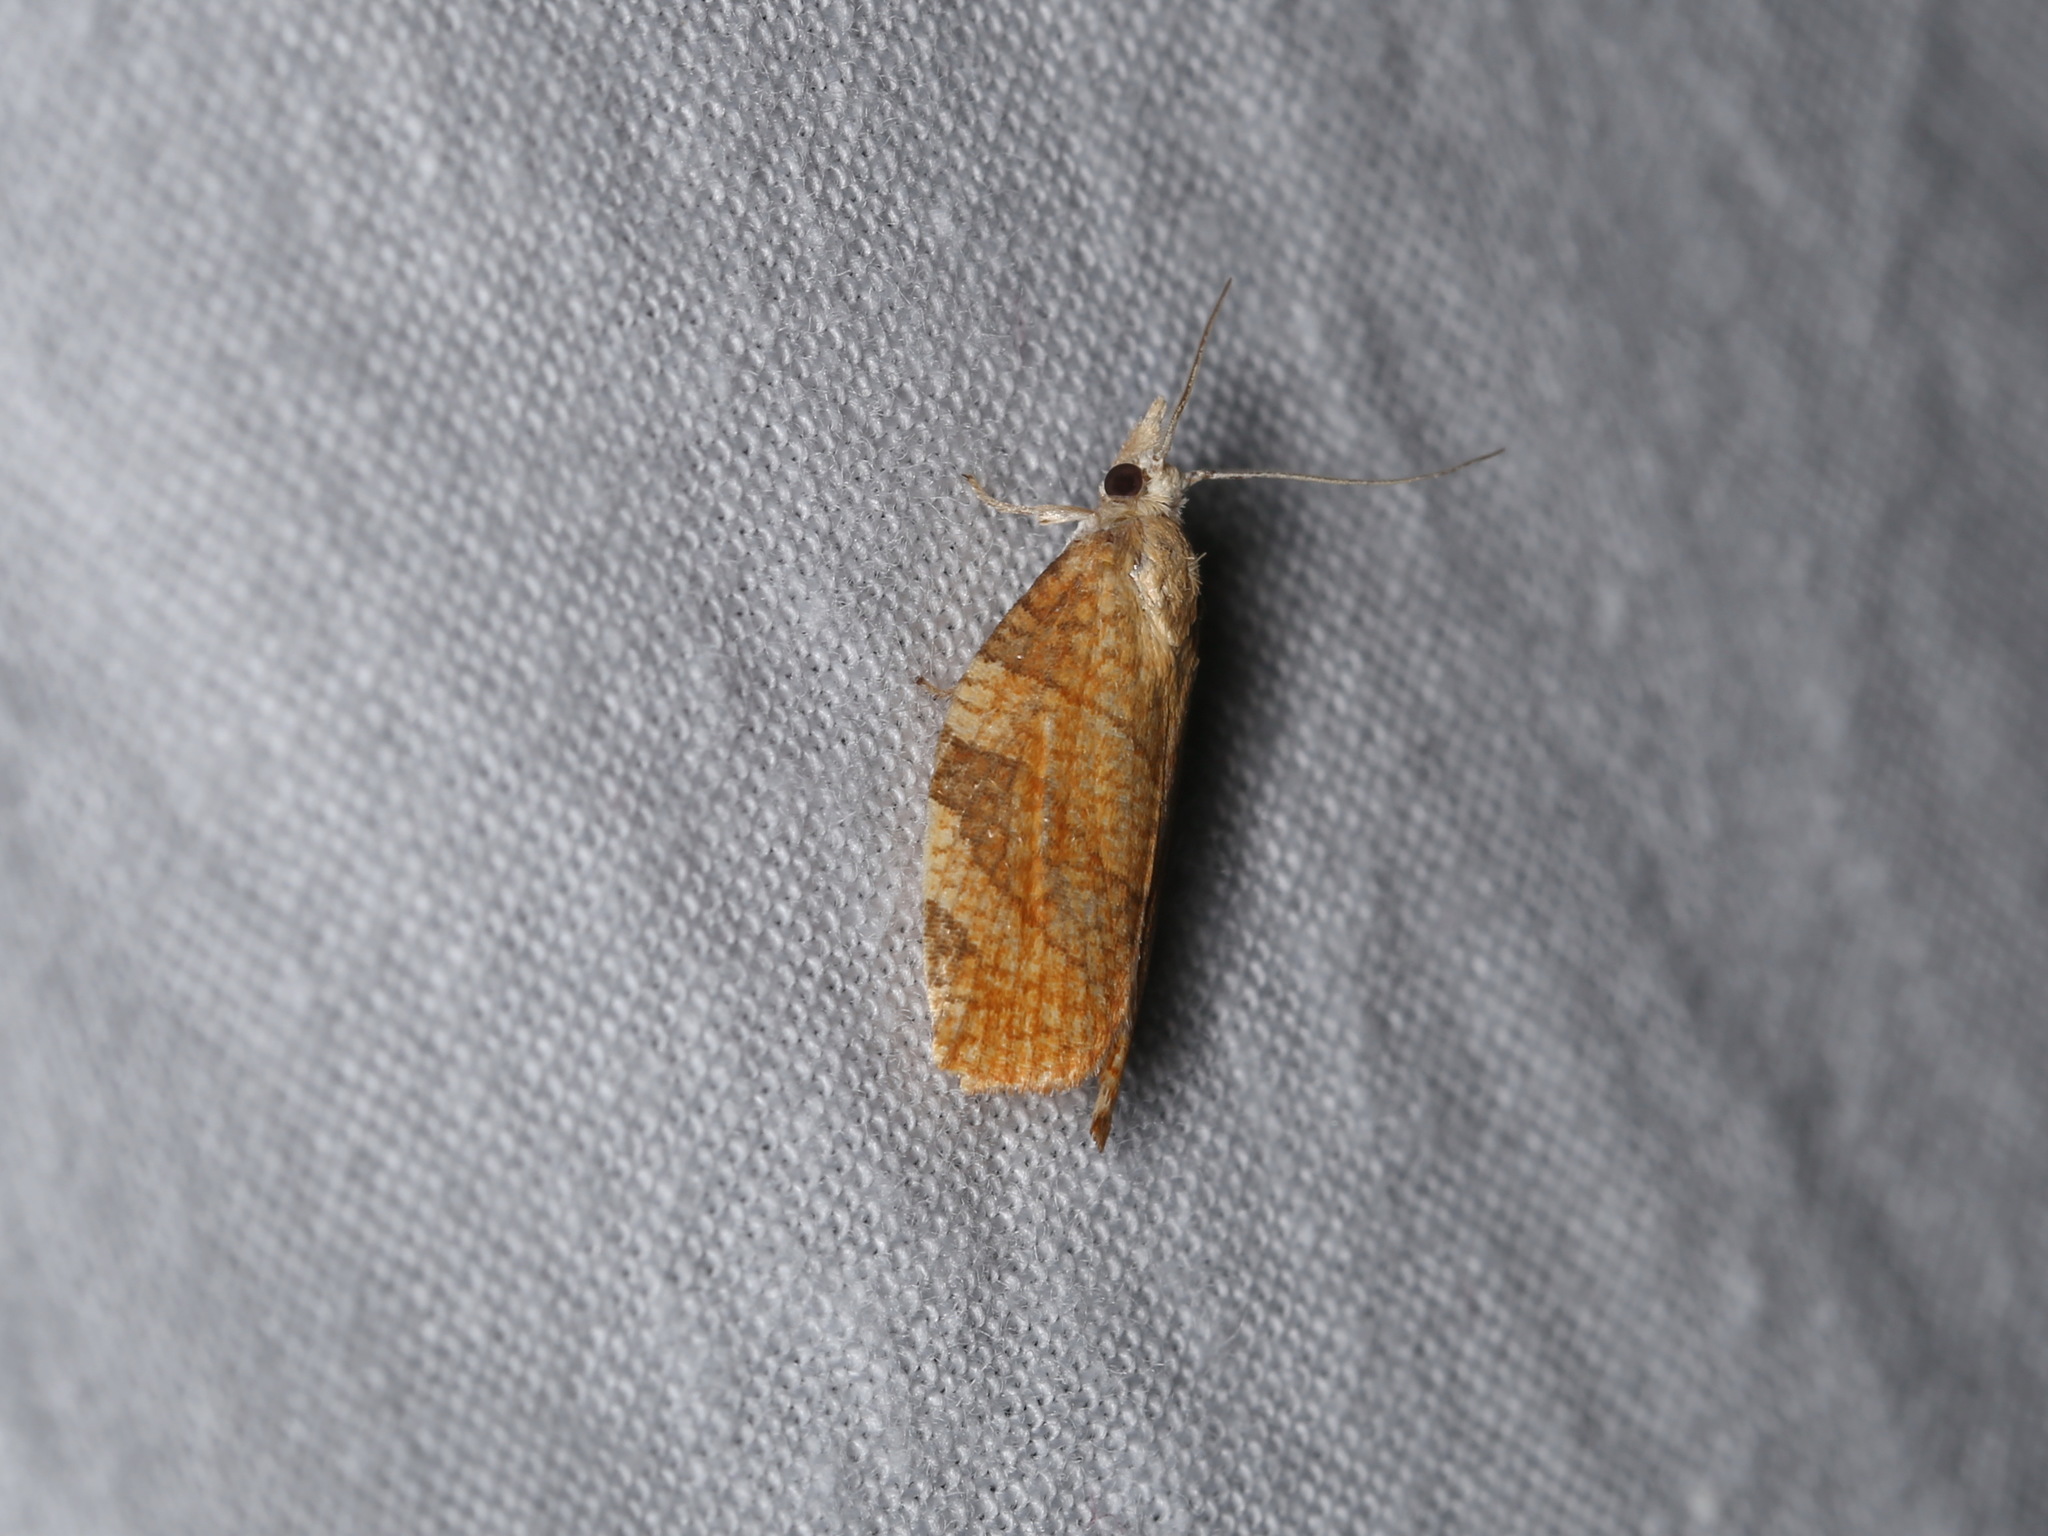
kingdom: Animalia
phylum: Arthropoda
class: Insecta
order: Lepidoptera
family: Tortricidae
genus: Pandemis
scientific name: Pandemis corylana
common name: Chequered fruit-tree tortrix
